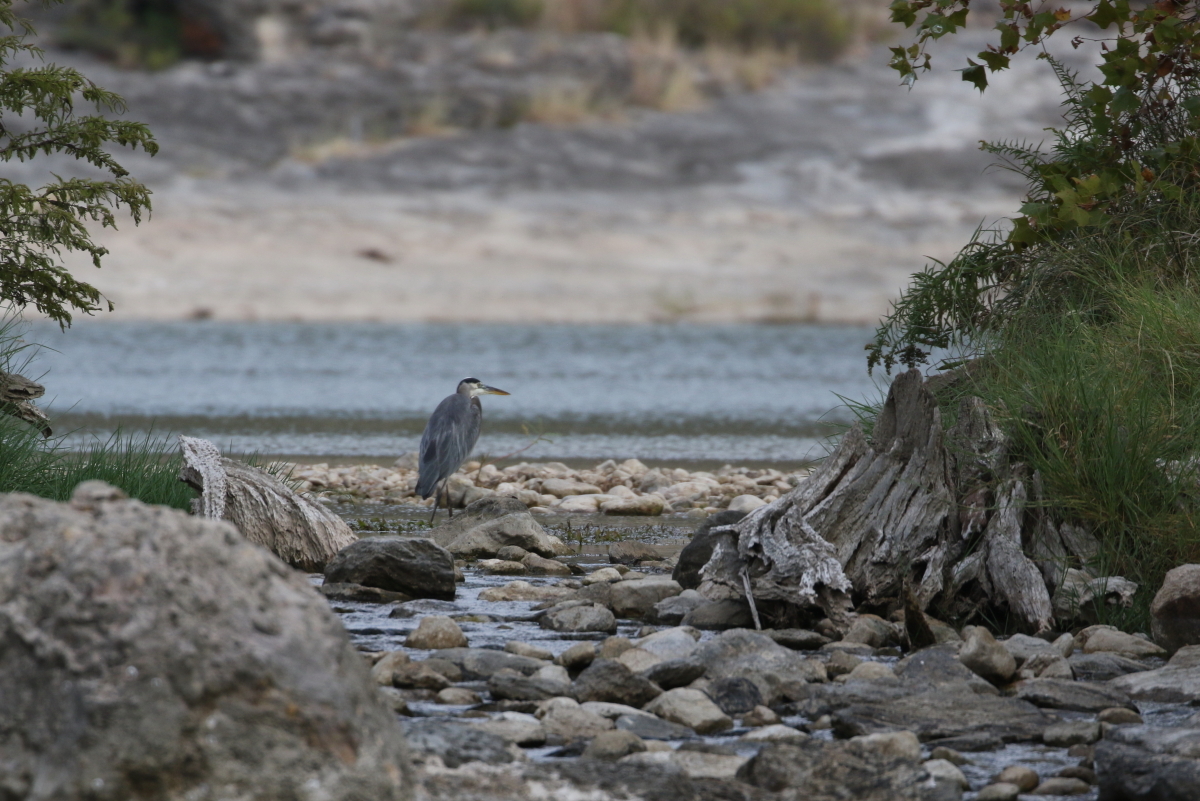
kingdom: Animalia
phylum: Chordata
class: Aves
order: Pelecaniformes
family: Ardeidae
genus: Ardea
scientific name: Ardea herodias
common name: Great blue heron
